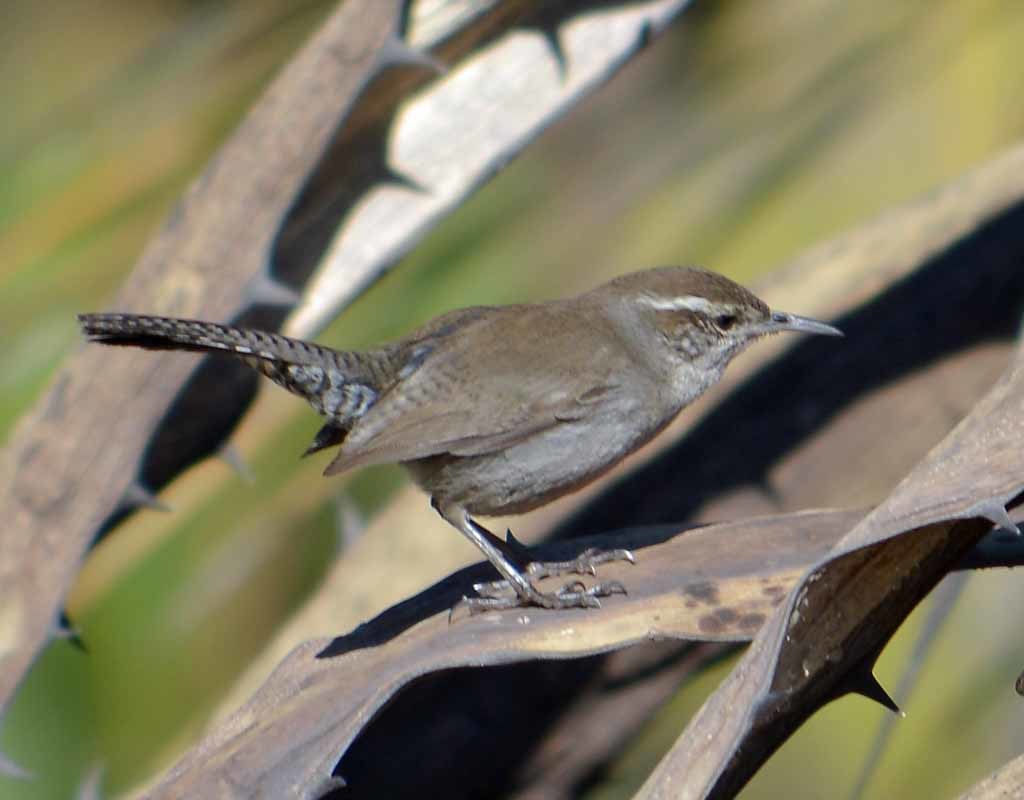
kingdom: Animalia
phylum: Chordata
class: Aves
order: Passeriformes
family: Troglodytidae
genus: Thryomanes
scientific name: Thryomanes bewickii
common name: Bewick's wren
